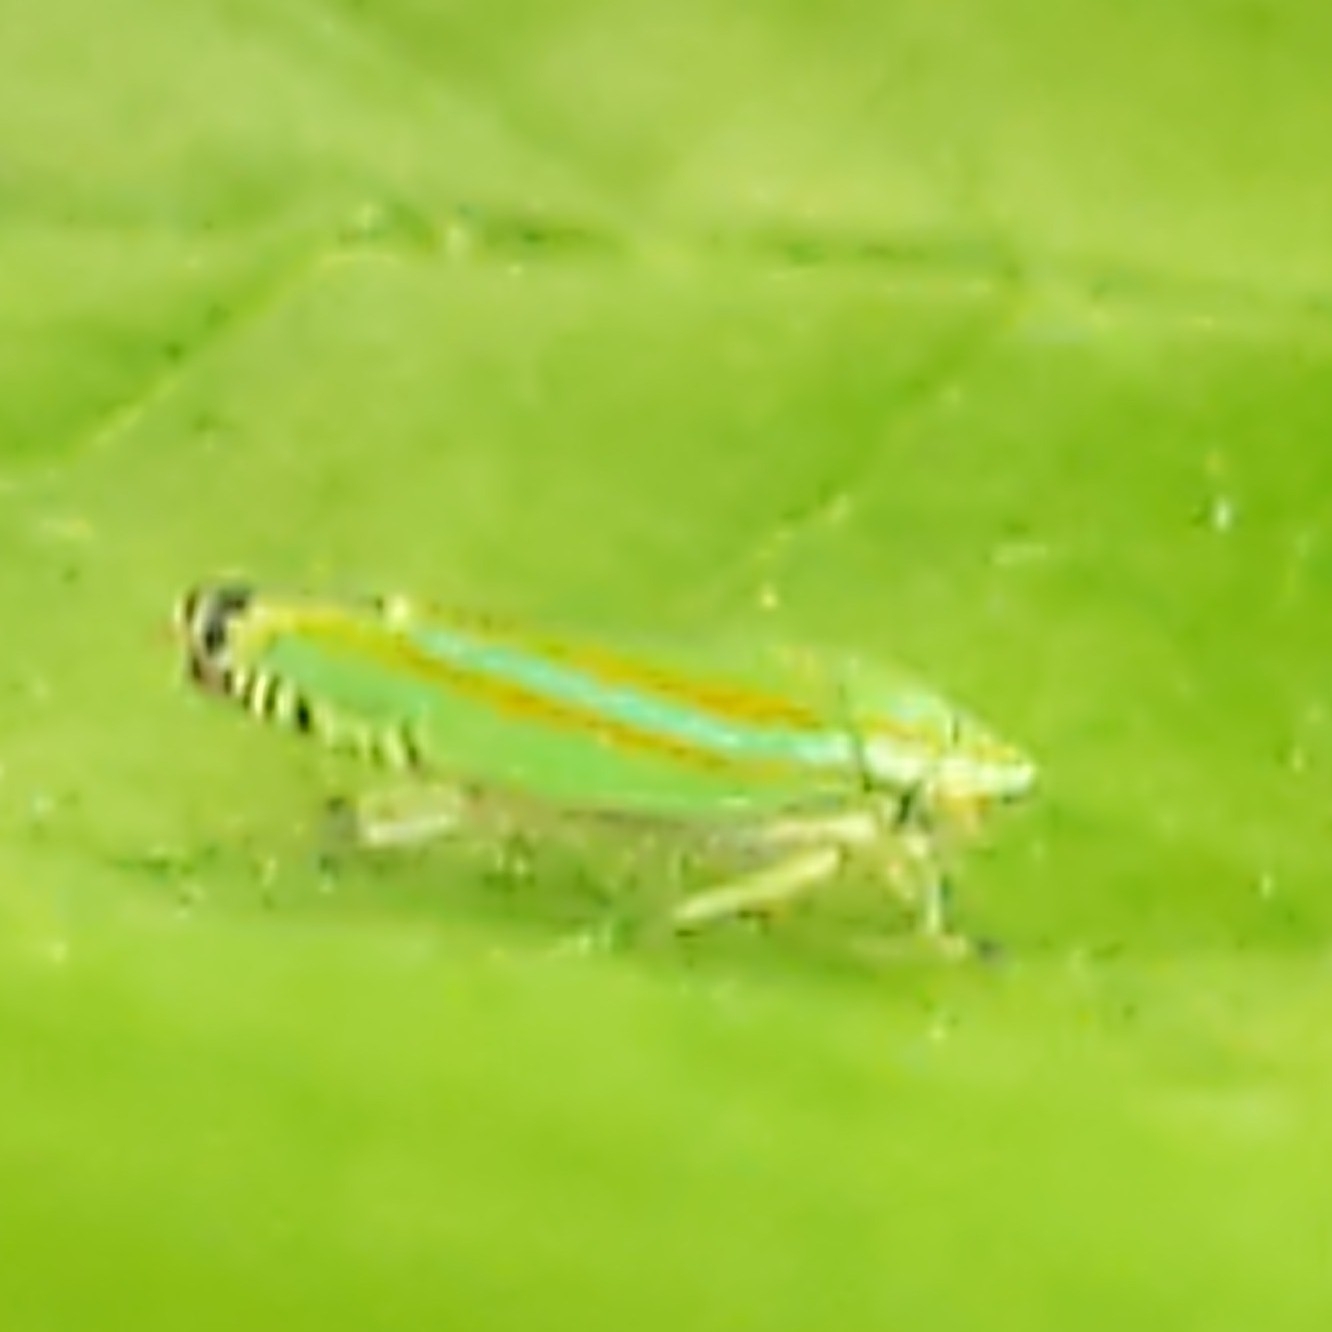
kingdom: Animalia
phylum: Arthropoda
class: Insecta
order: Hemiptera
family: Cicadellidae
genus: Graphocephala
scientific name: Graphocephala versuta
